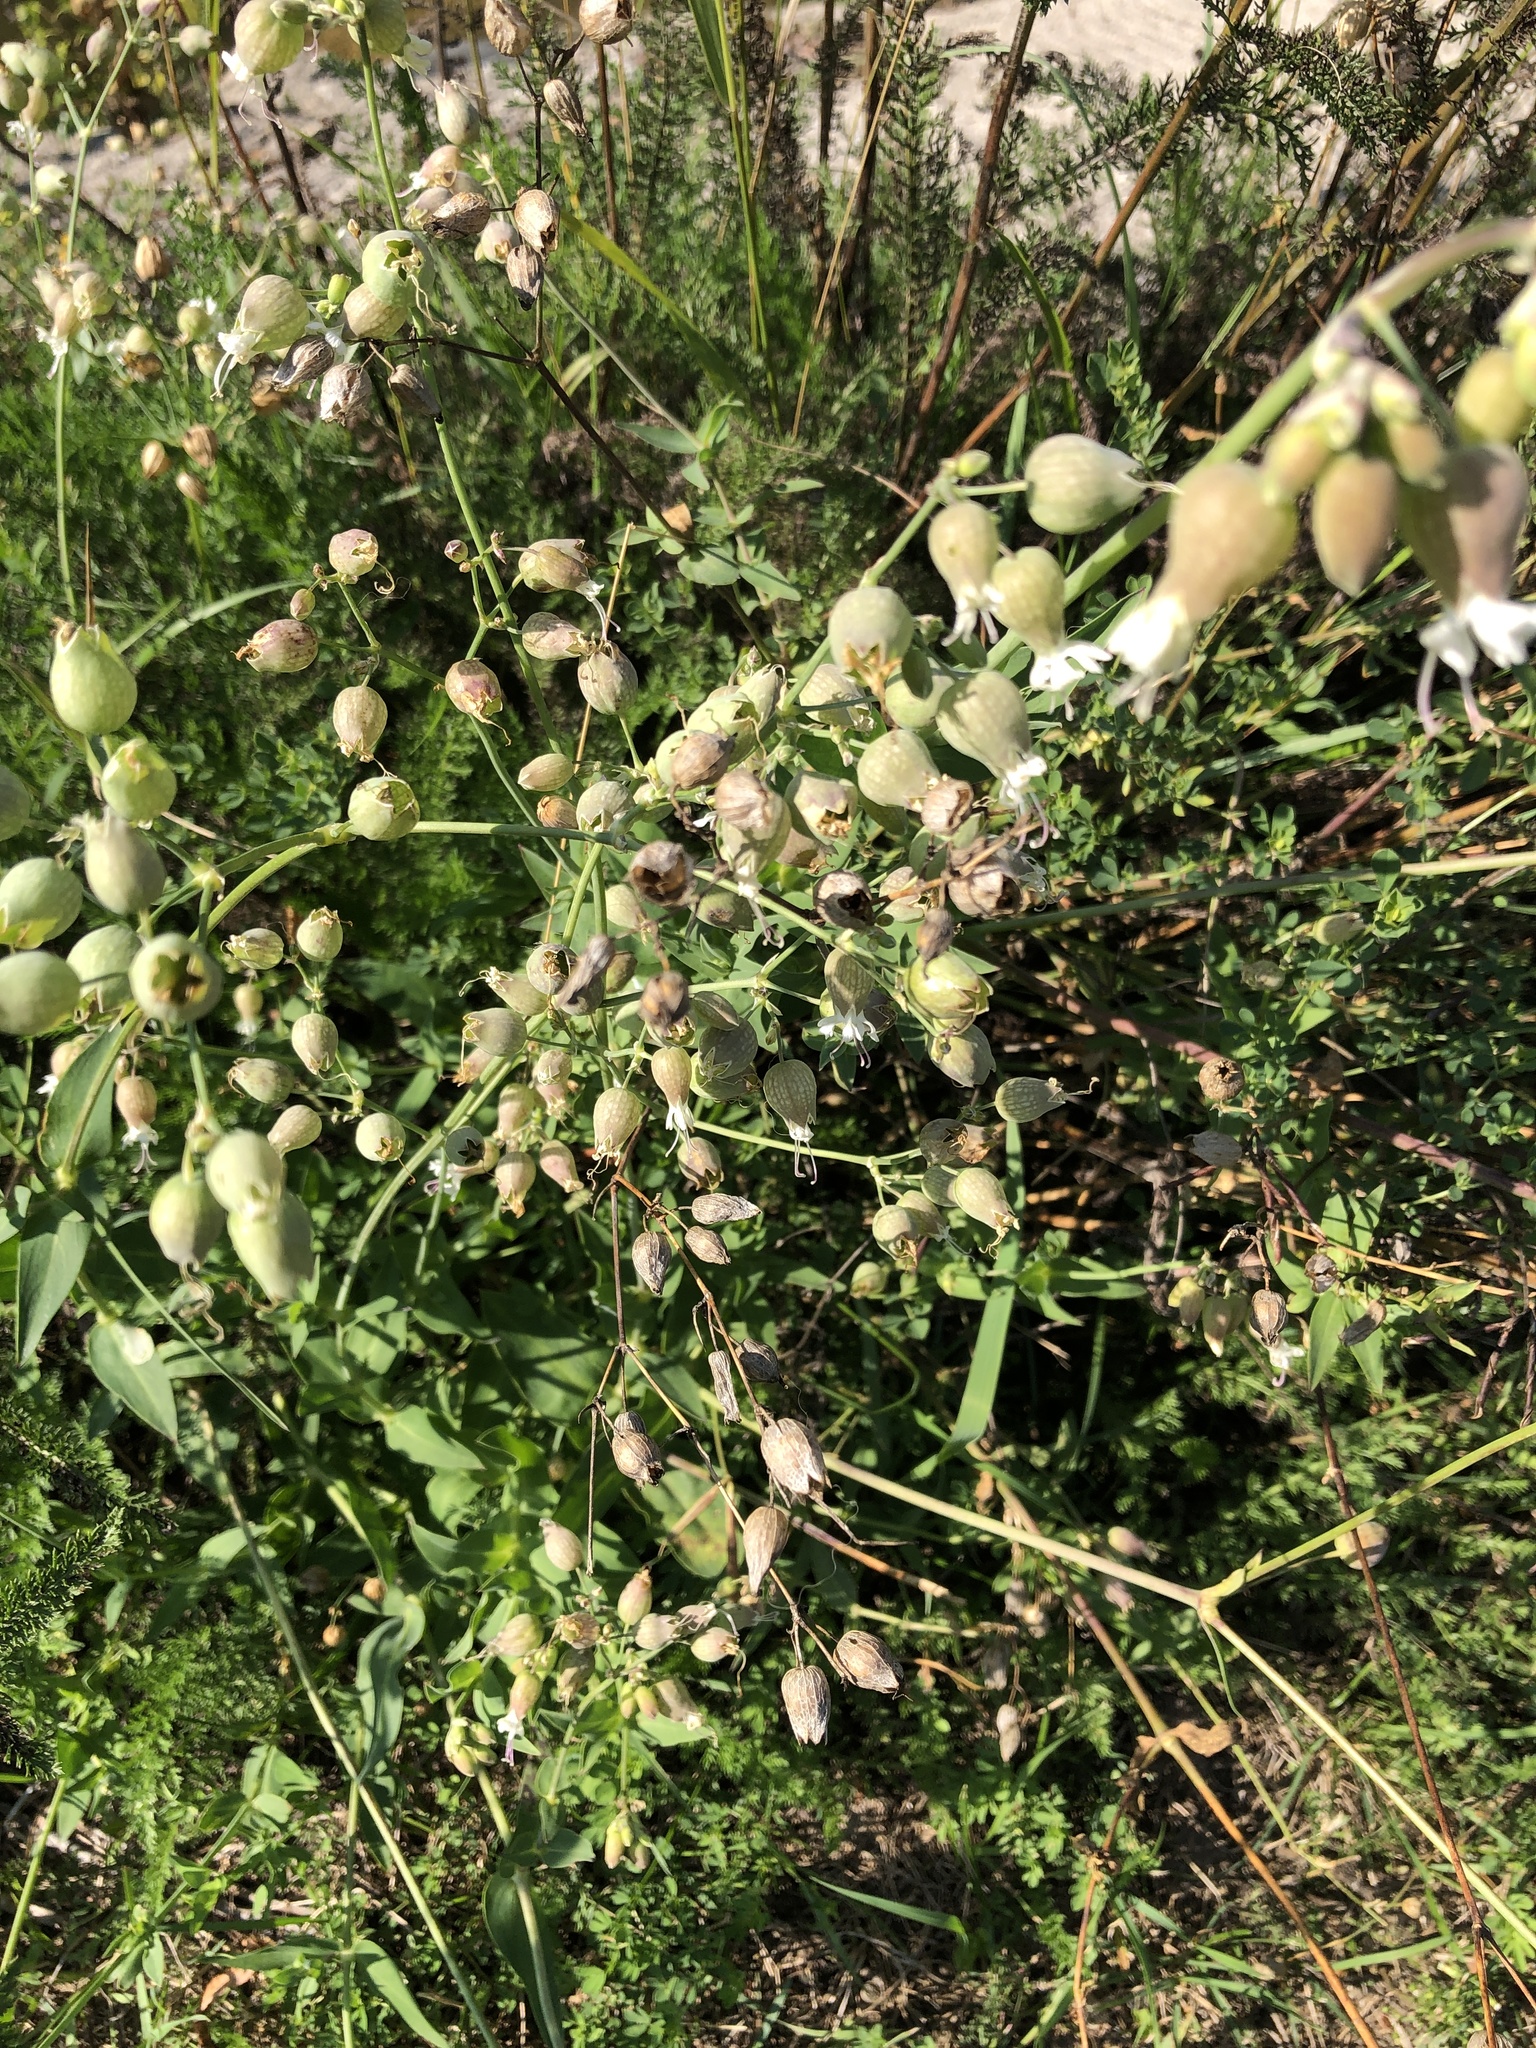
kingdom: Plantae
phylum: Tracheophyta
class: Magnoliopsida
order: Caryophyllales
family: Caryophyllaceae
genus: Silene
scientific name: Silene vulgaris
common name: Bladder campion
